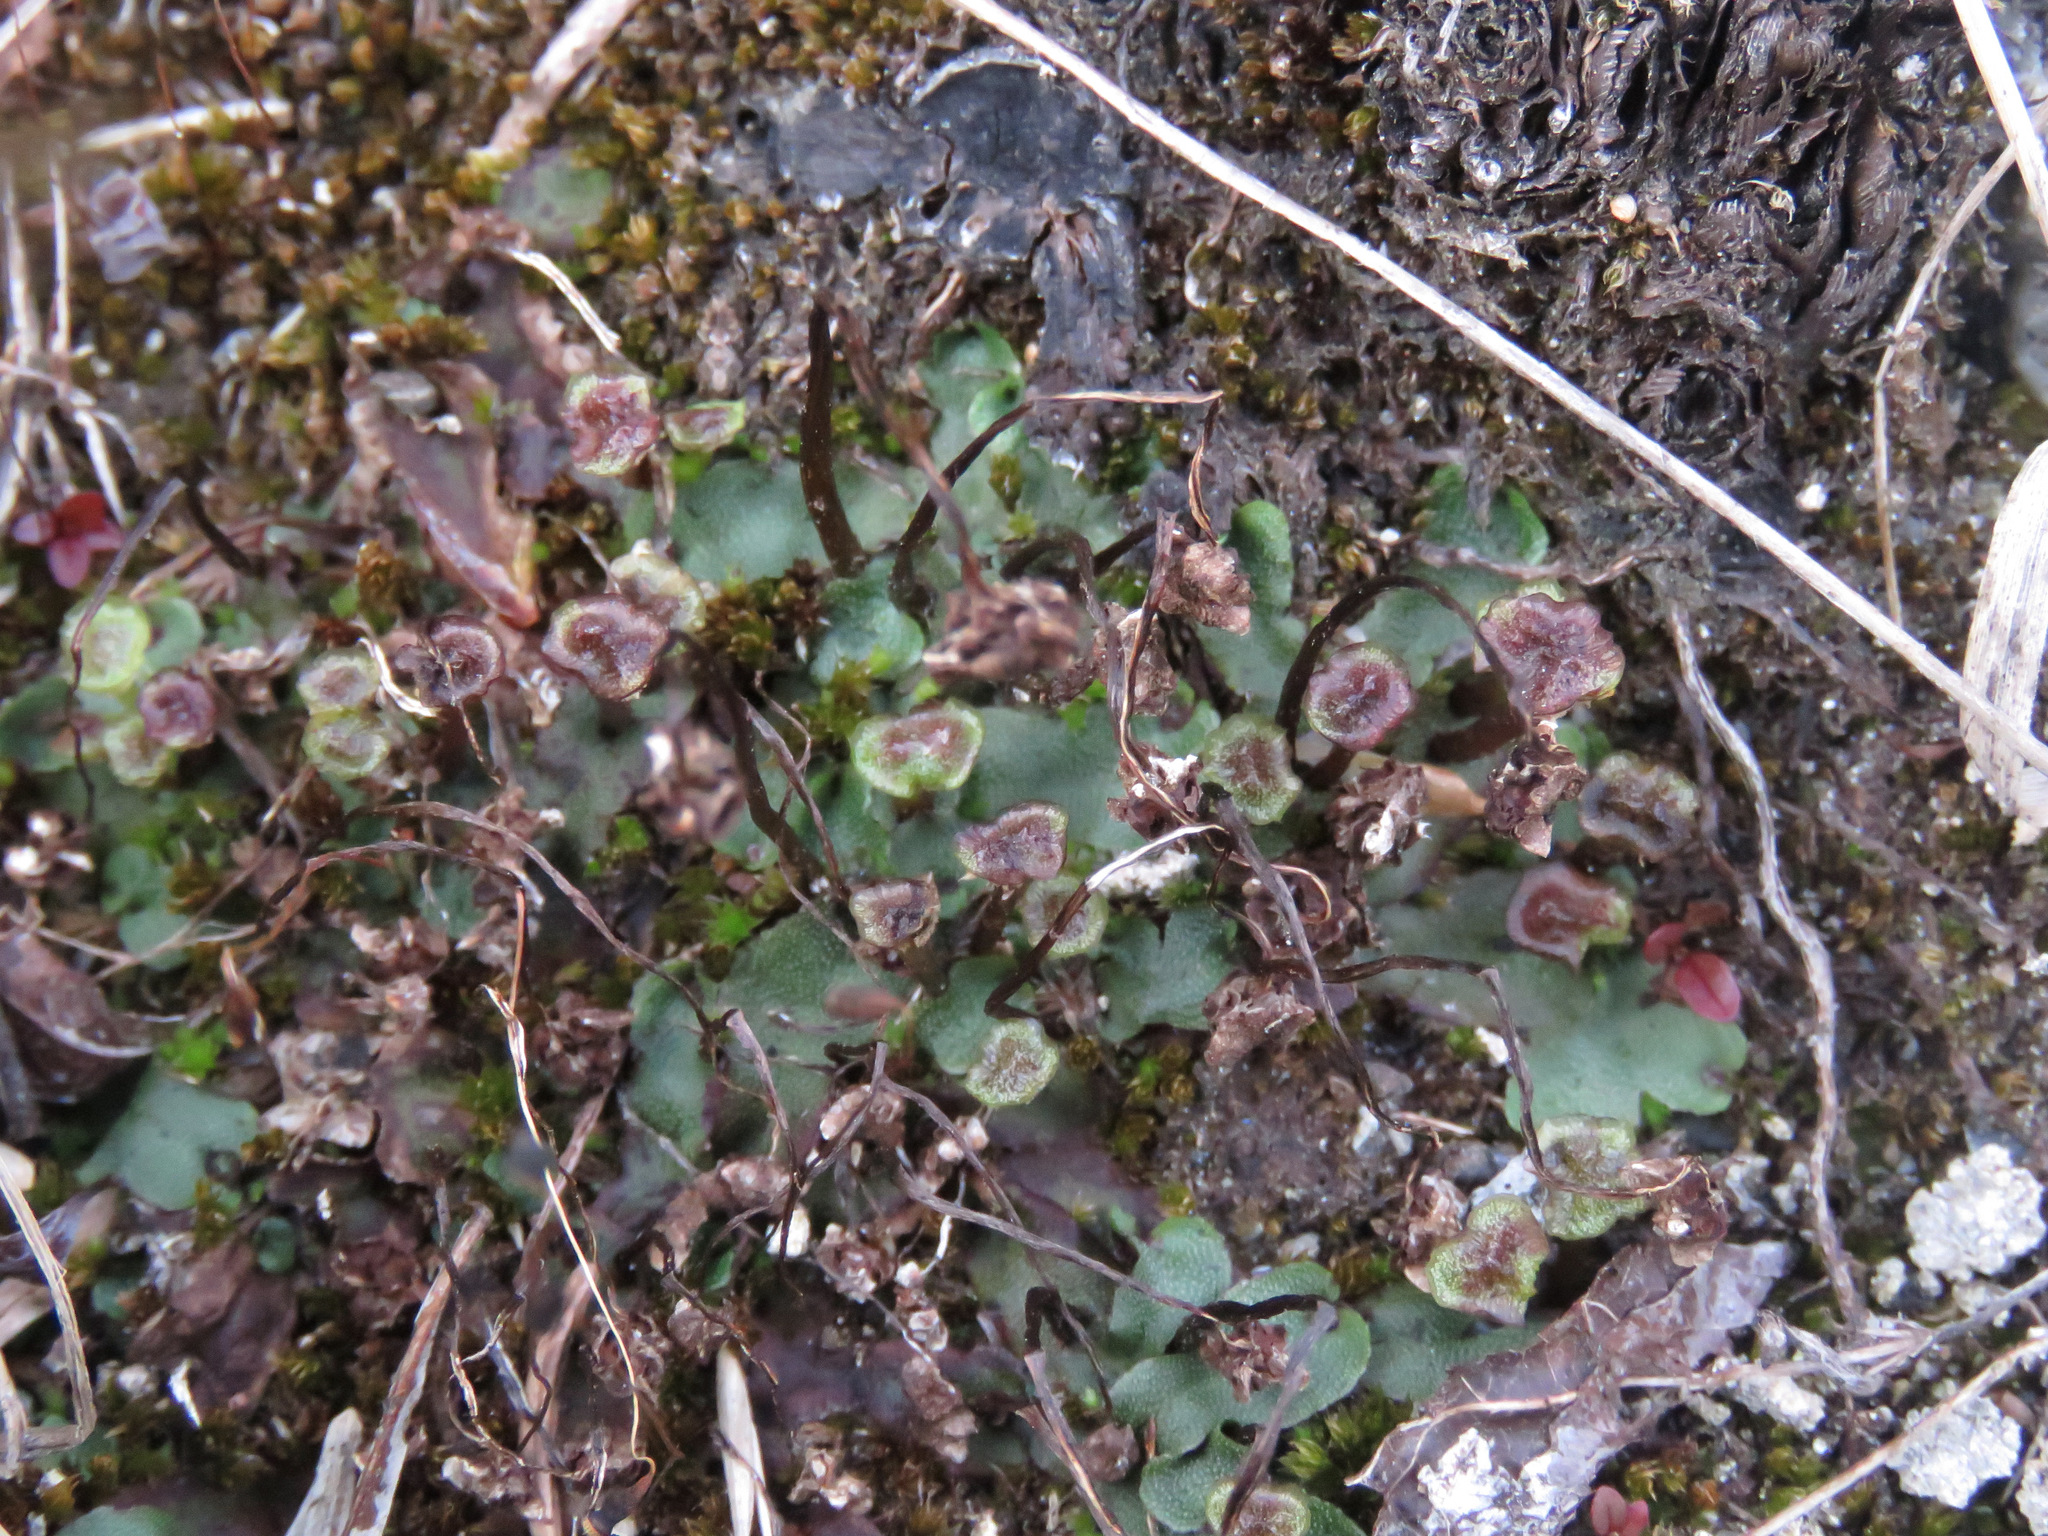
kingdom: Plantae
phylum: Marchantiophyta
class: Marchantiopsida
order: Marchantiales
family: Marchantiaceae
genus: Marchantia
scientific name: Marchantia quadrata
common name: Narrow mushroom-headed liverwort
